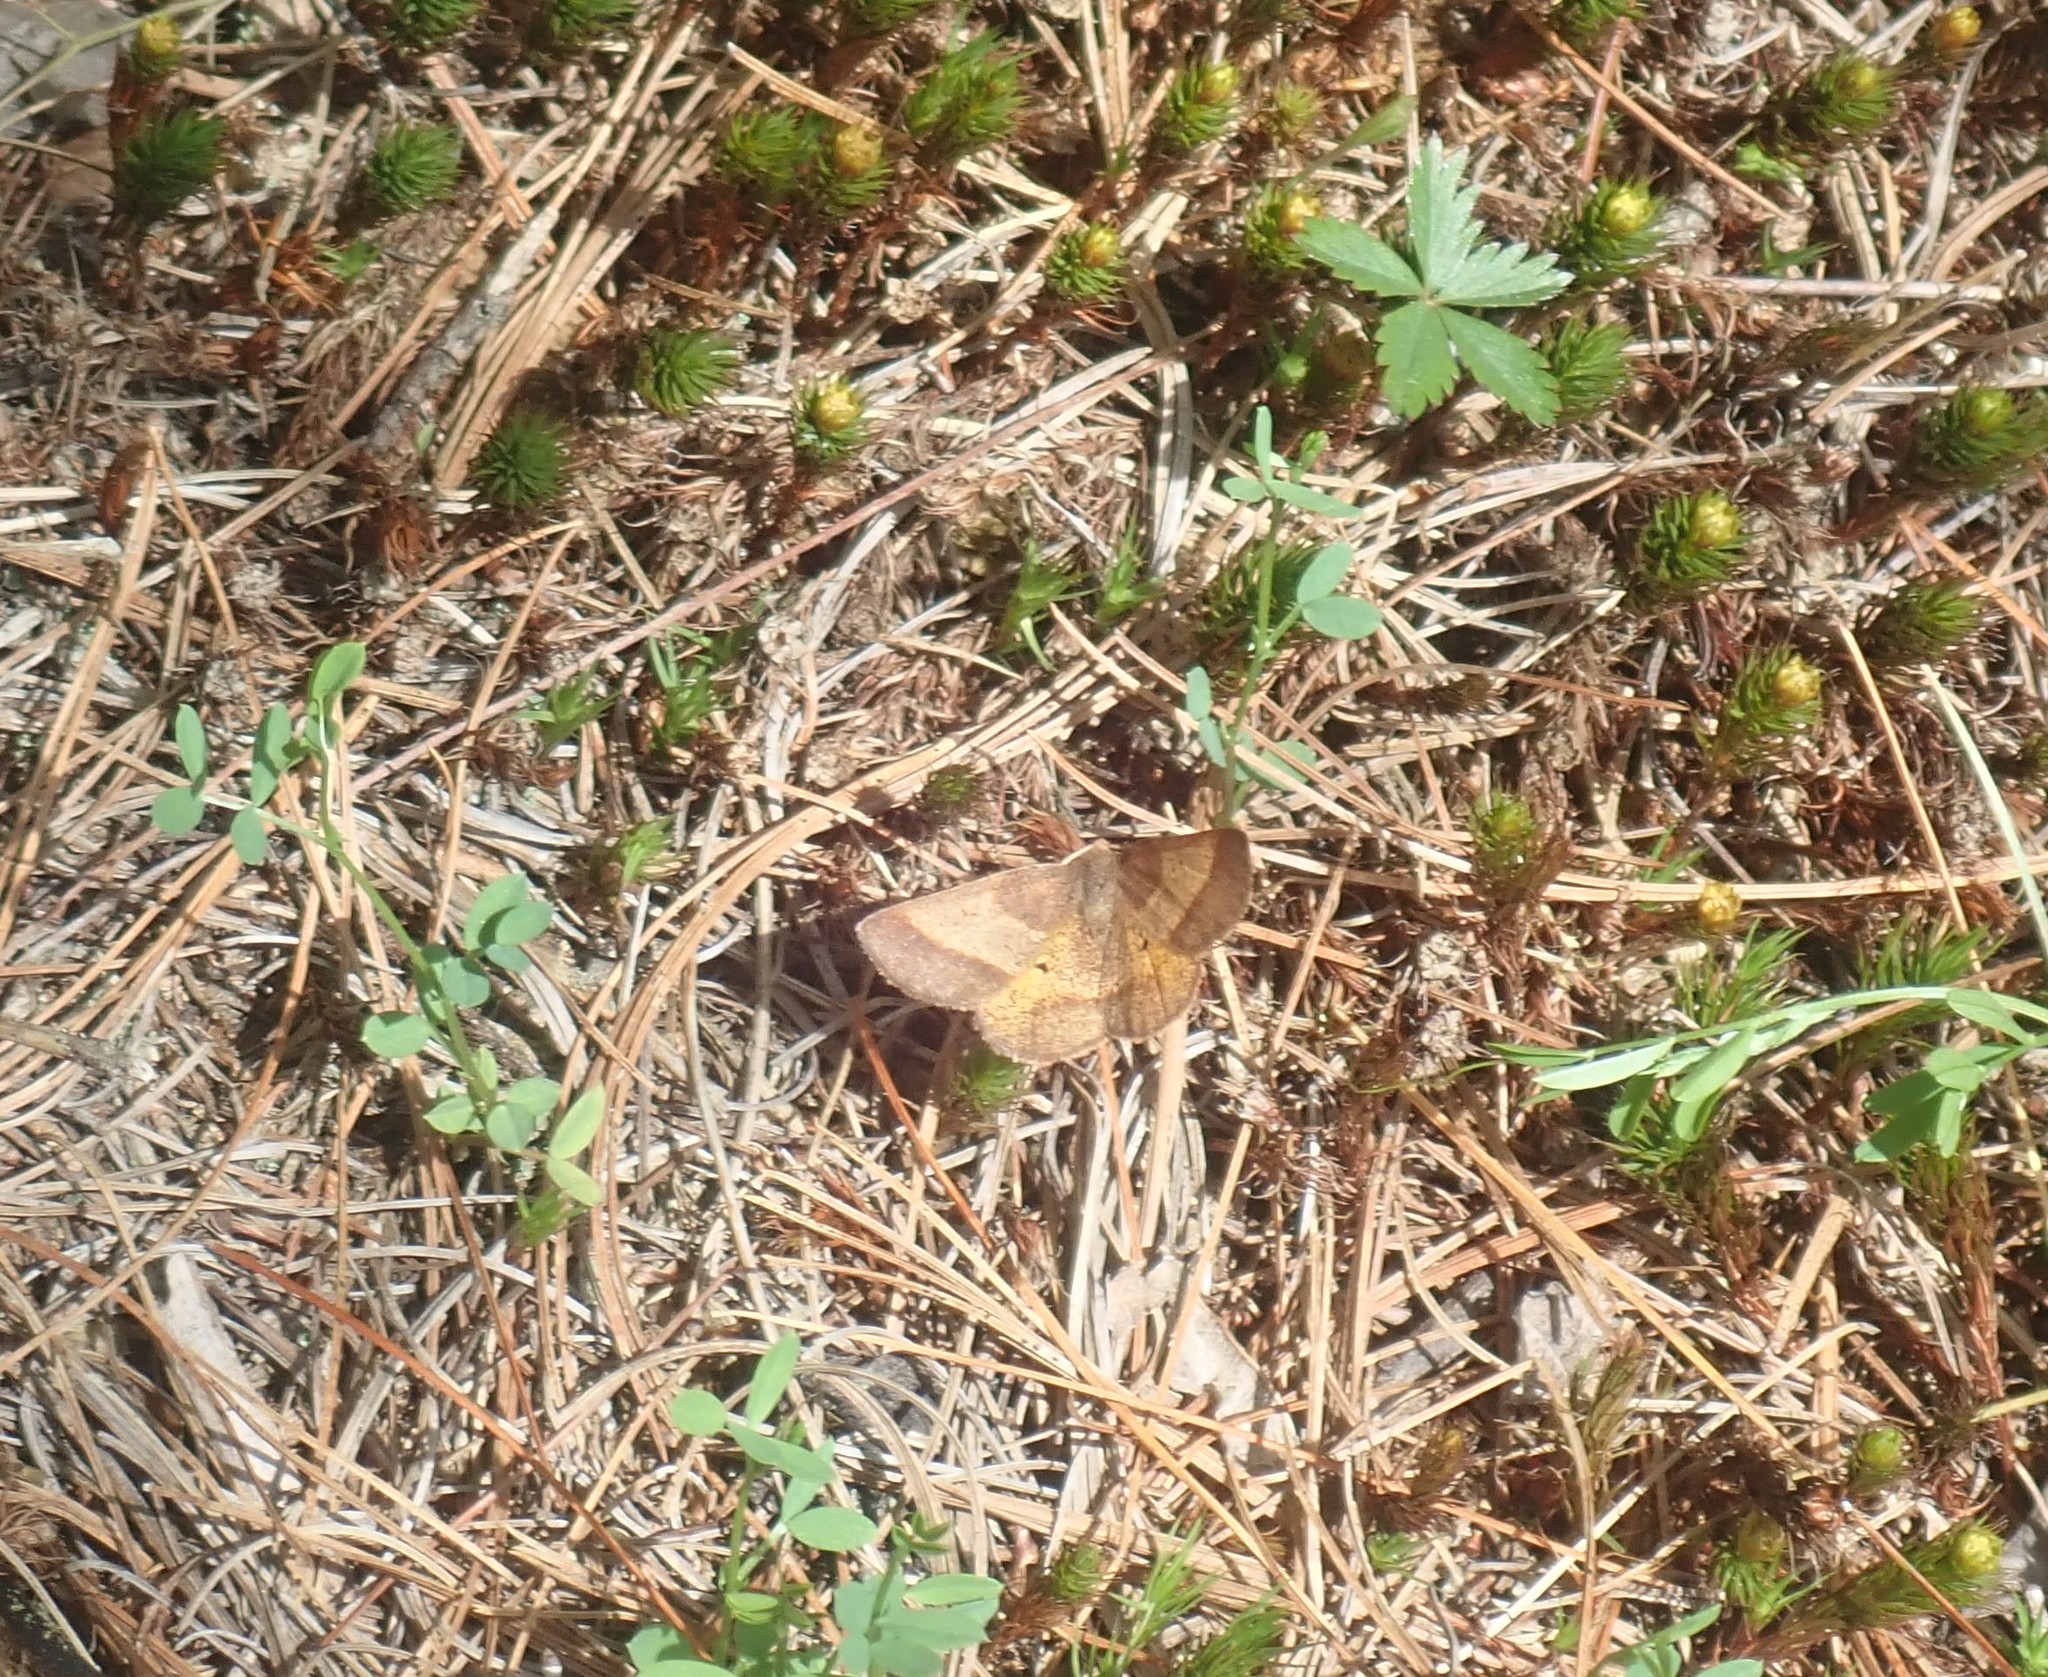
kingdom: Animalia
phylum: Arthropoda
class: Insecta
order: Lepidoptera
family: Geometridae
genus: Metarranthis
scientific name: Metarranthis obfirmaria
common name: Yellow-washed metarranthis
